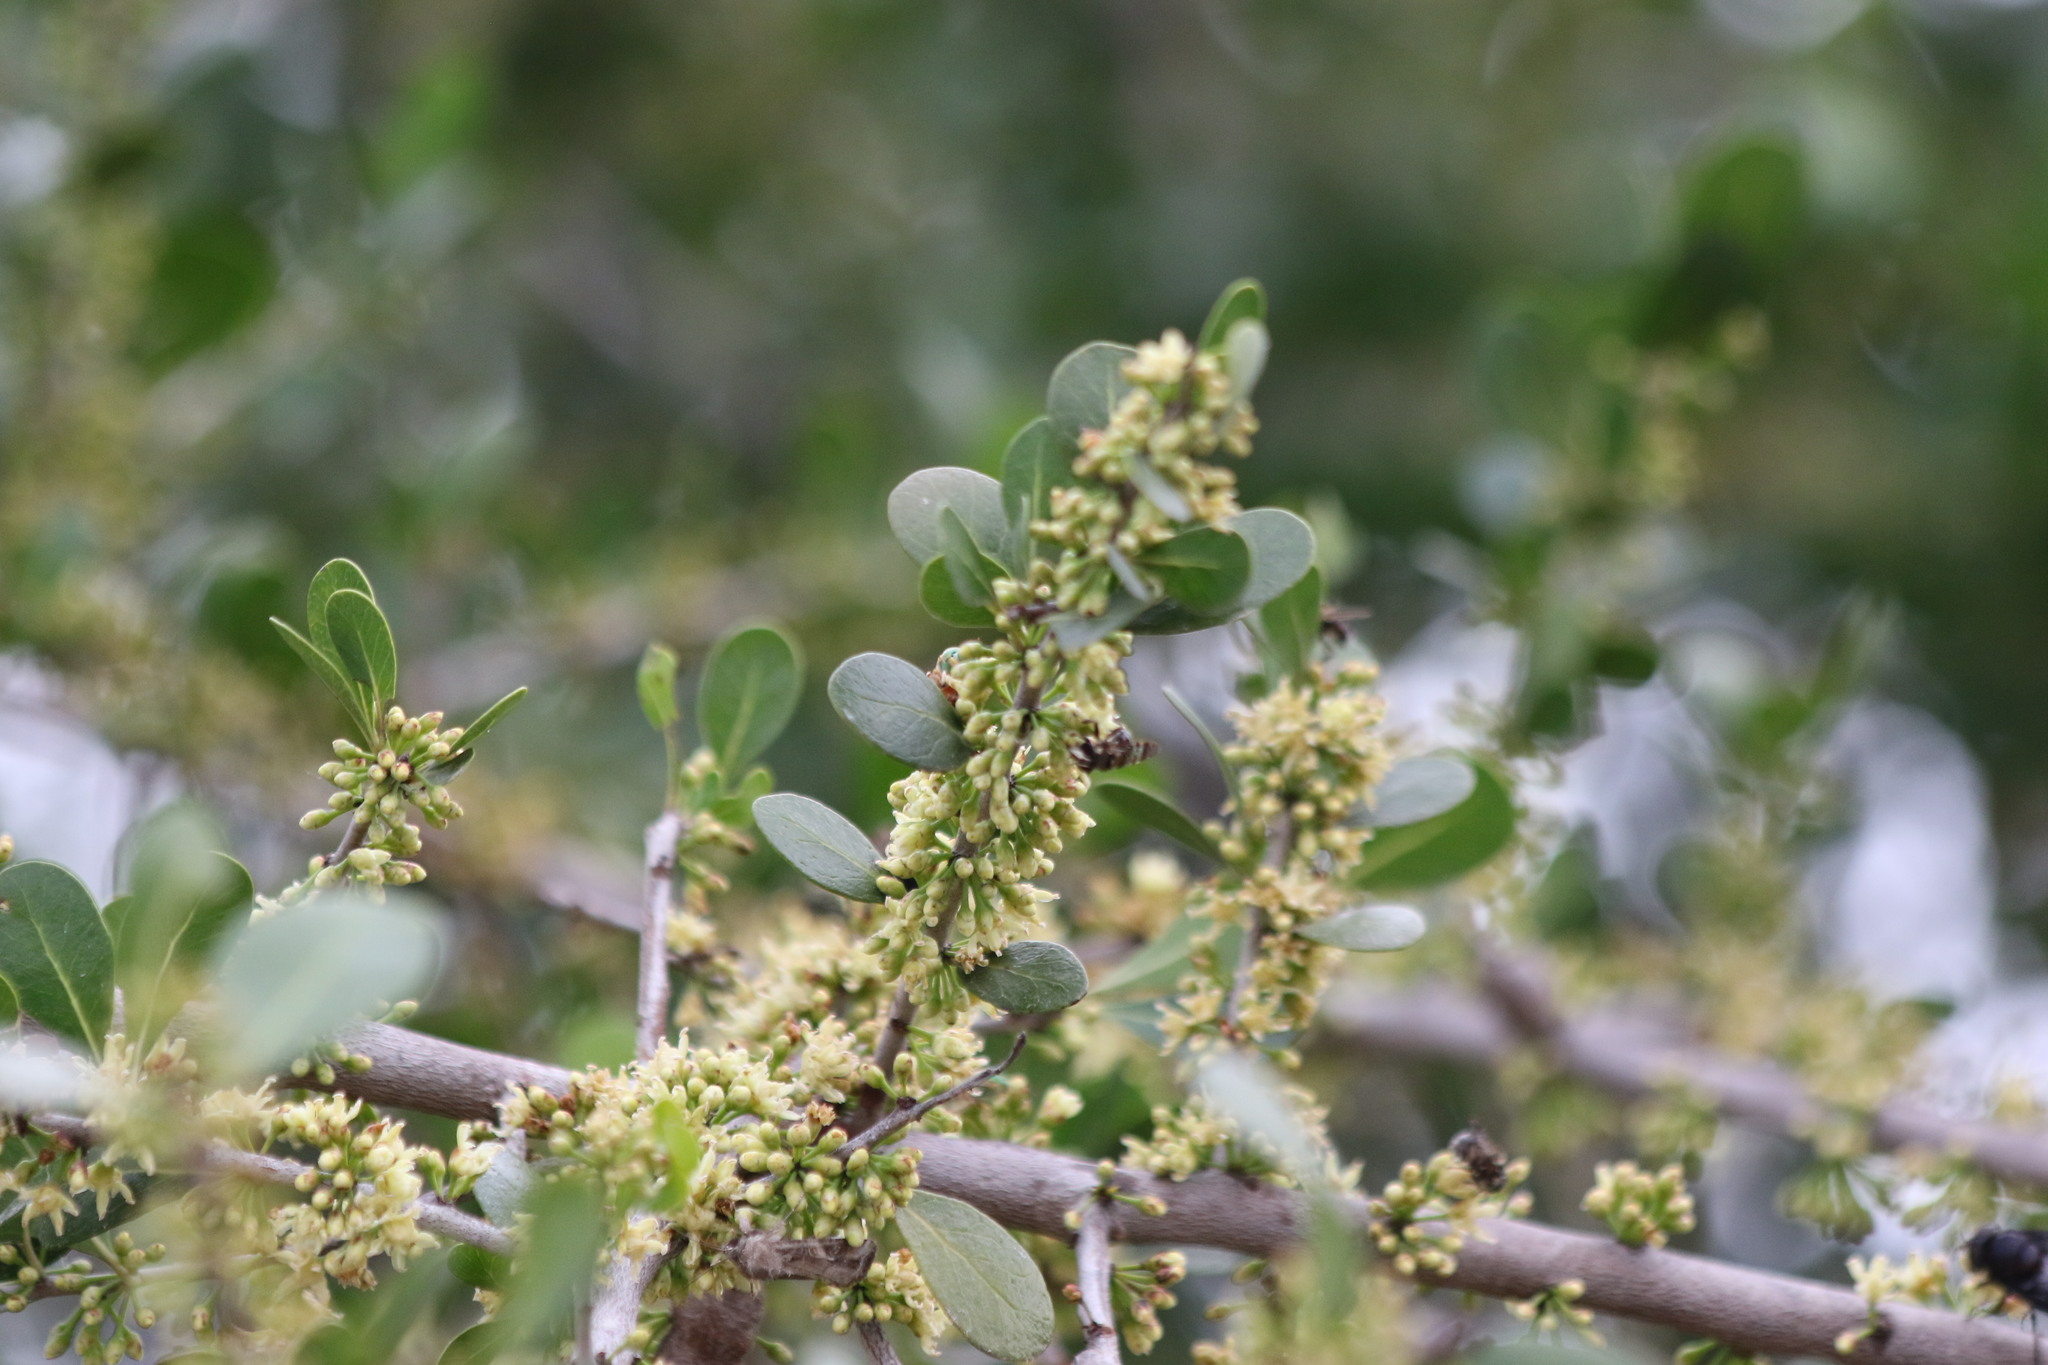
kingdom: Plantae
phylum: Tracheophyta
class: Magnoliopsida
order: Ericales
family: Sapotaceae
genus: Sideroxylon
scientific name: Sideroxylon celastrinum
